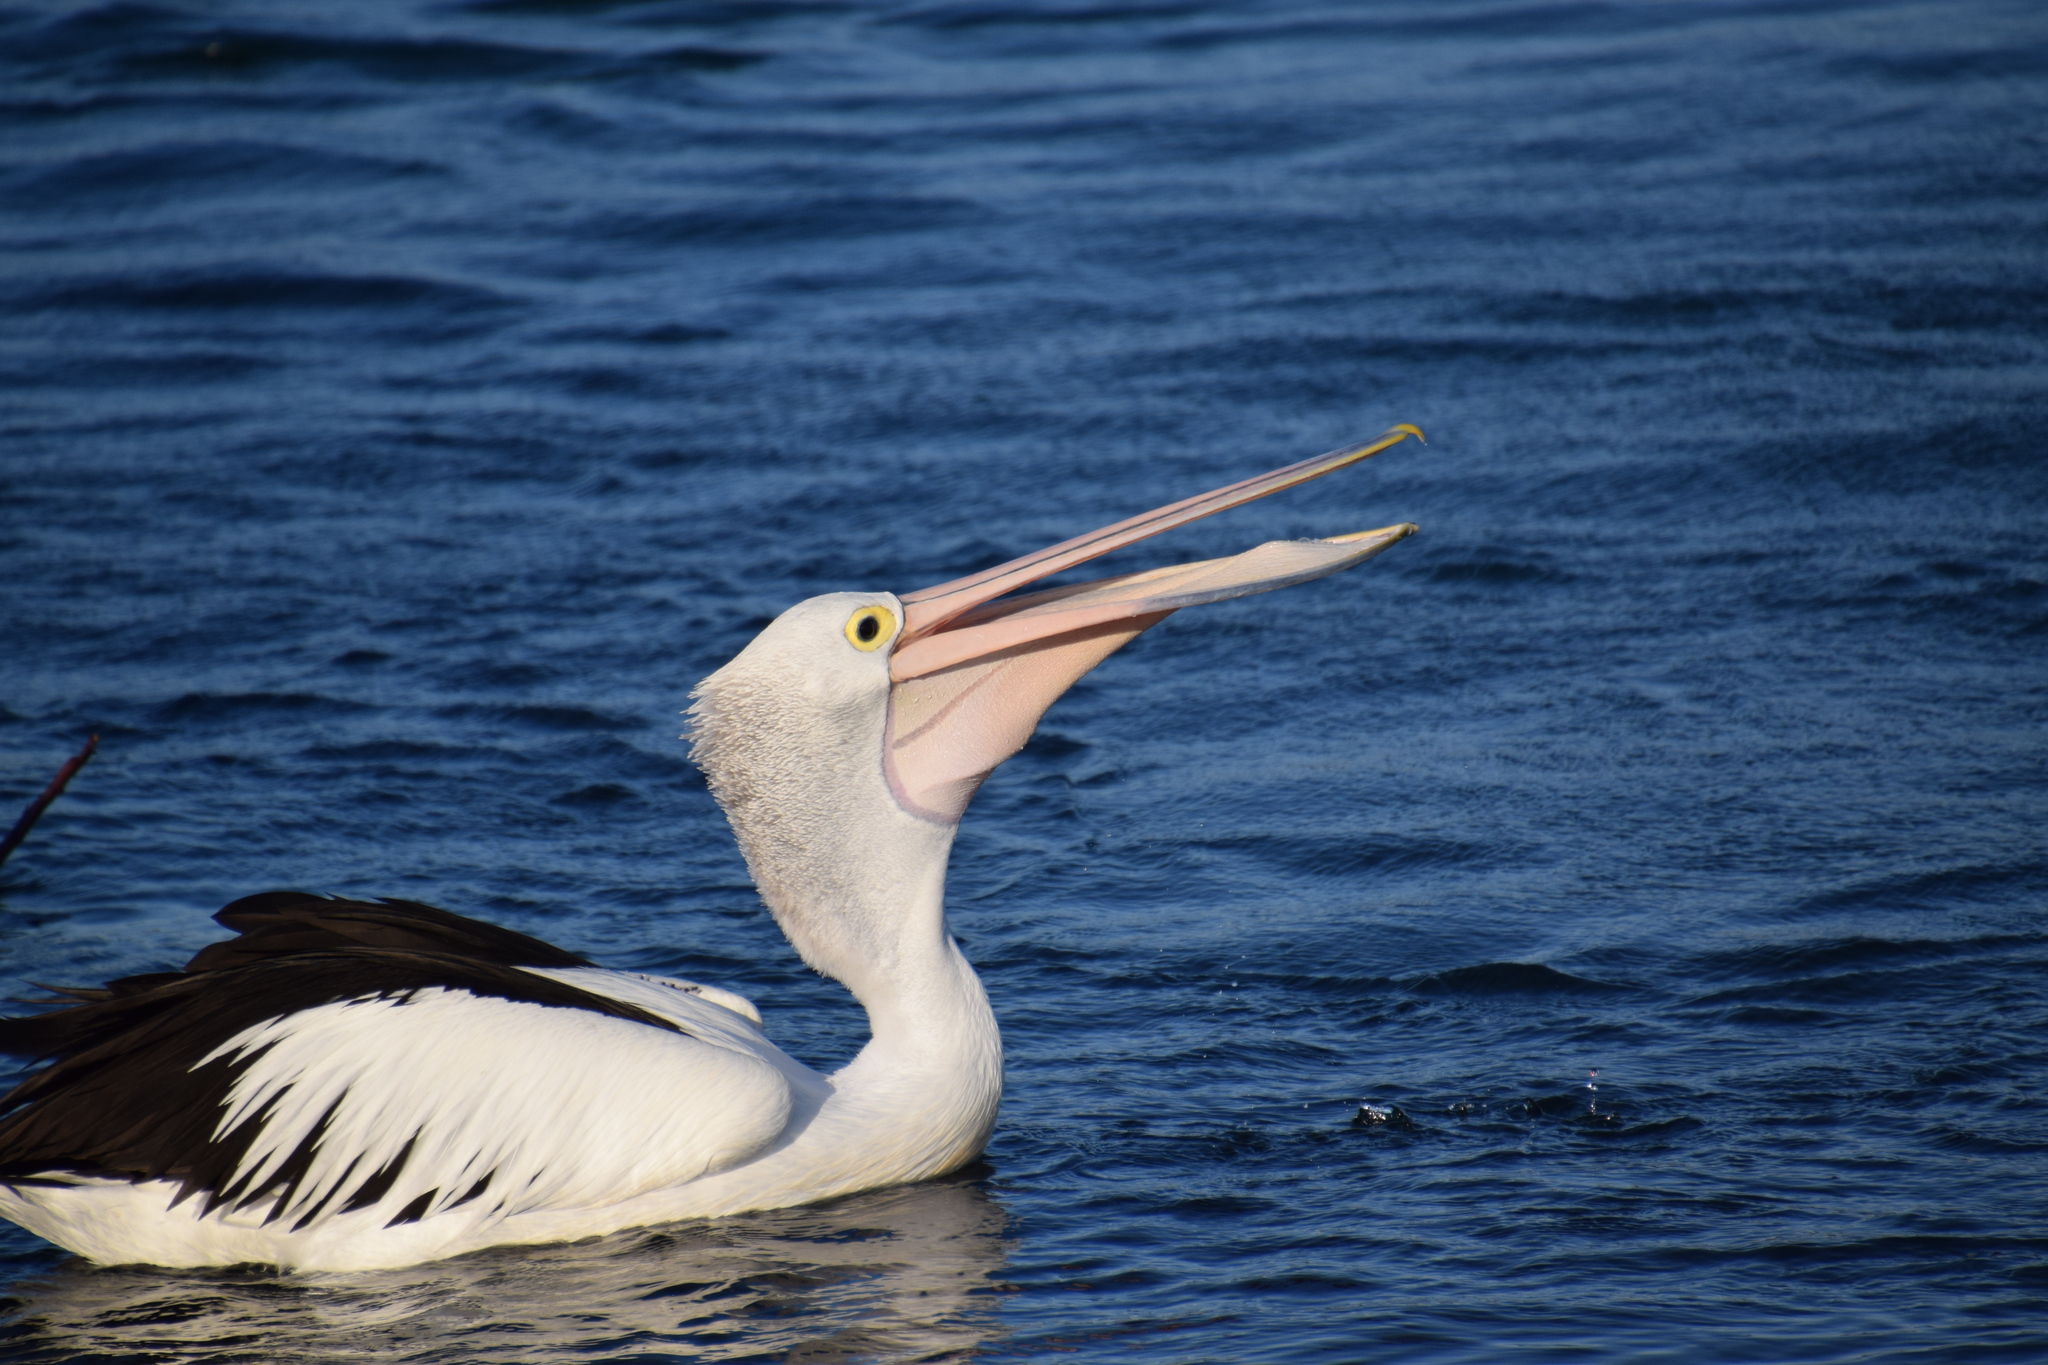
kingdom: Animalia
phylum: Chordata
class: Aves
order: Pelecaniformes
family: Pelecanidae
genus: Pelecanus
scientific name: Pelecanus conspicillatus
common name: Australian pelican
